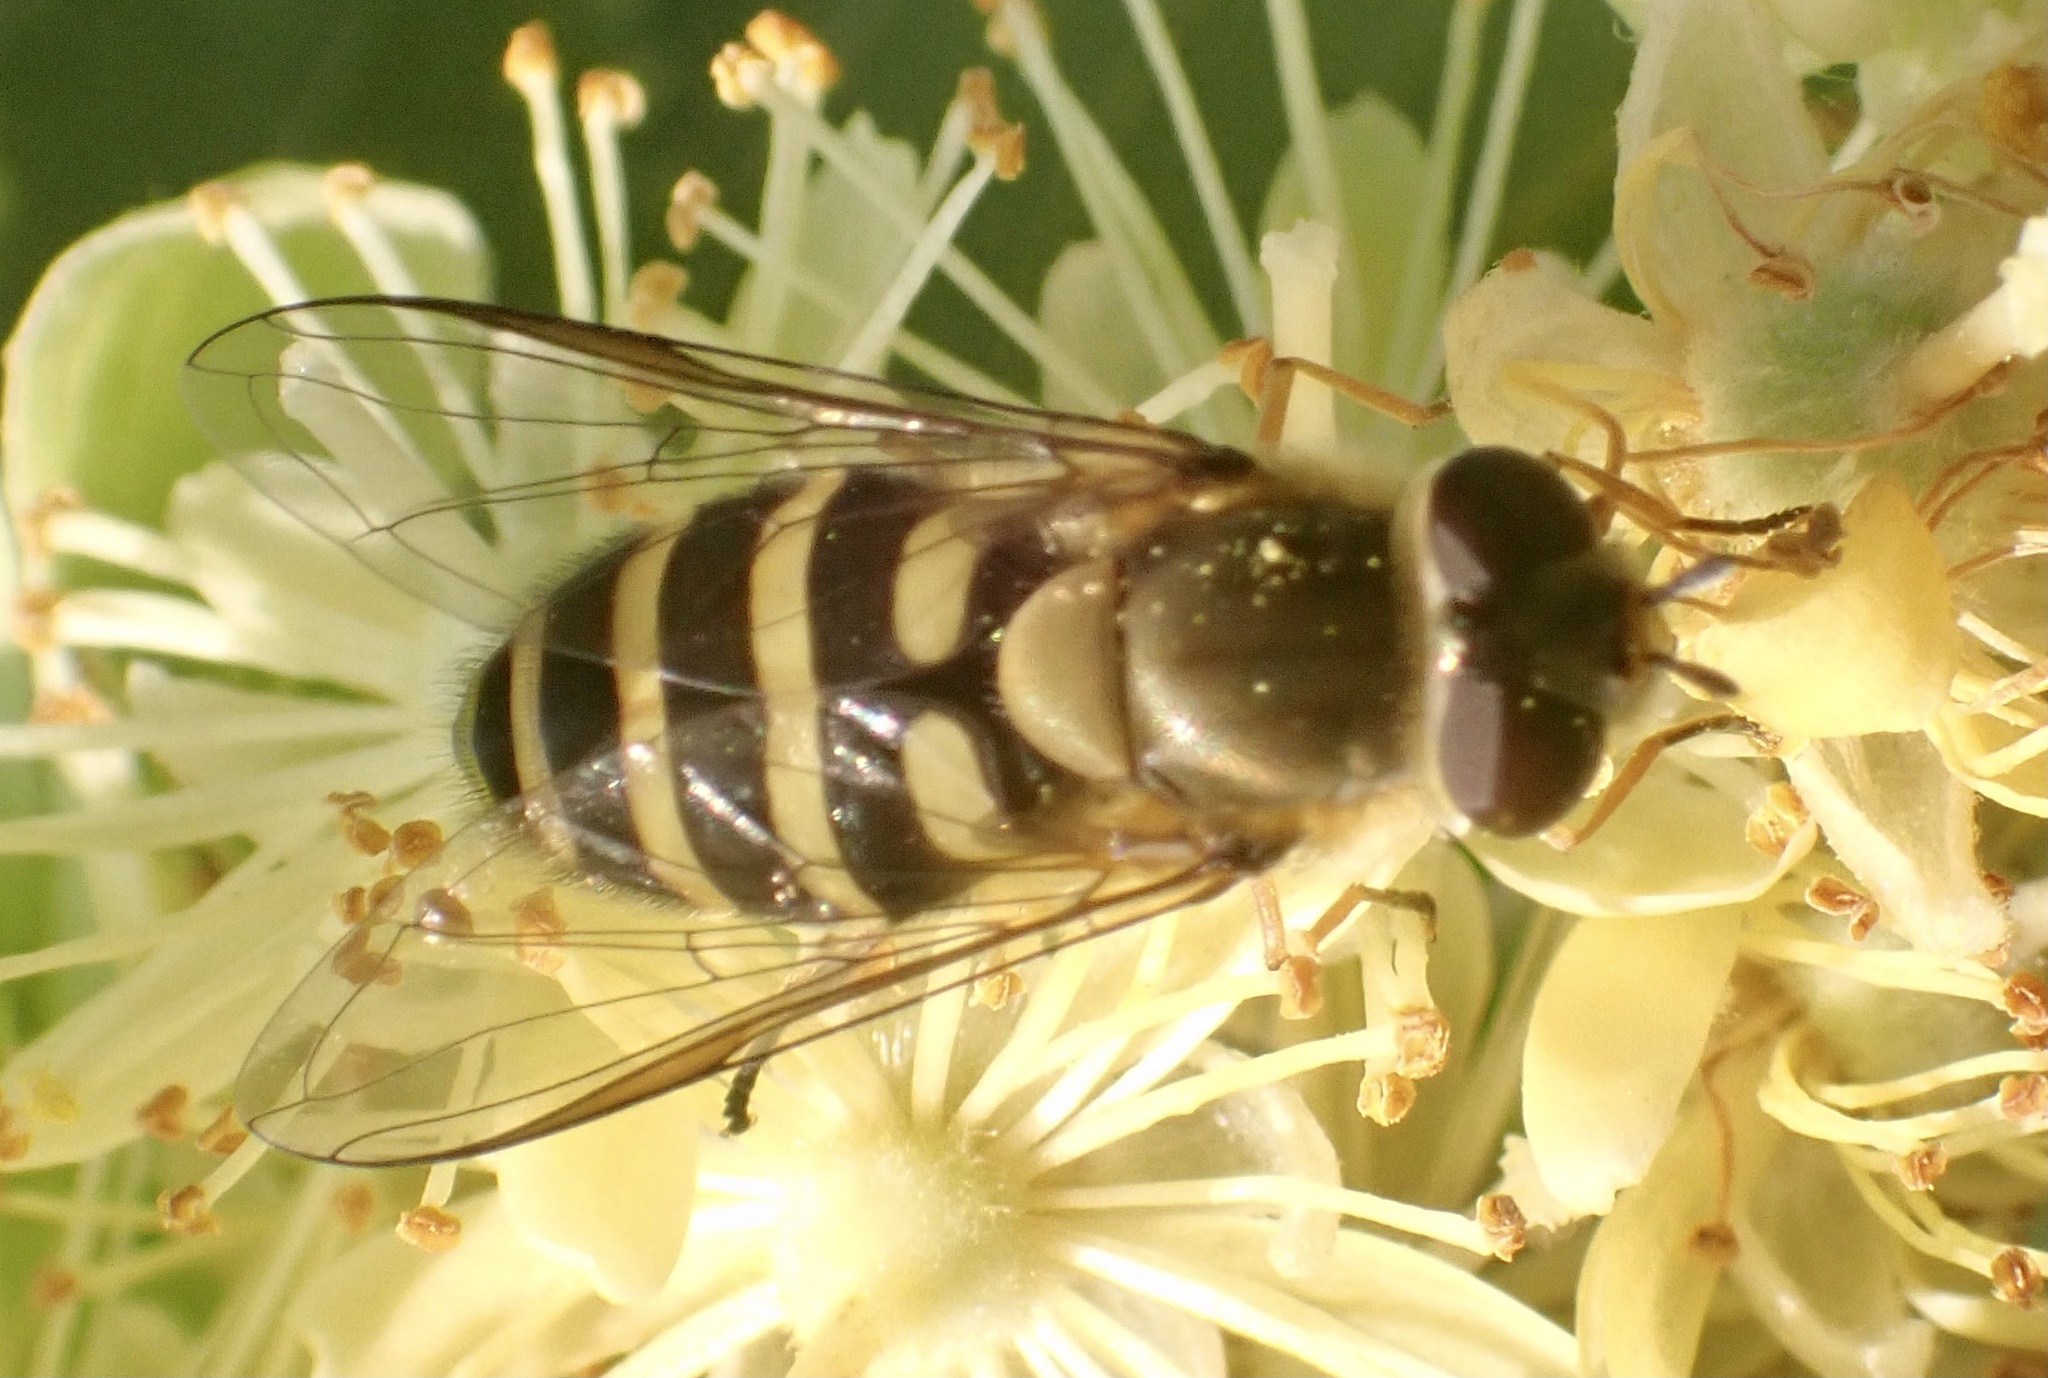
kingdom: Animalia
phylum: Arthropoda
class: Insecta
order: Diptera
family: Syrphidae
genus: Syrphus
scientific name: Syrphus torvus
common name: Hairy-eyed flower fly
